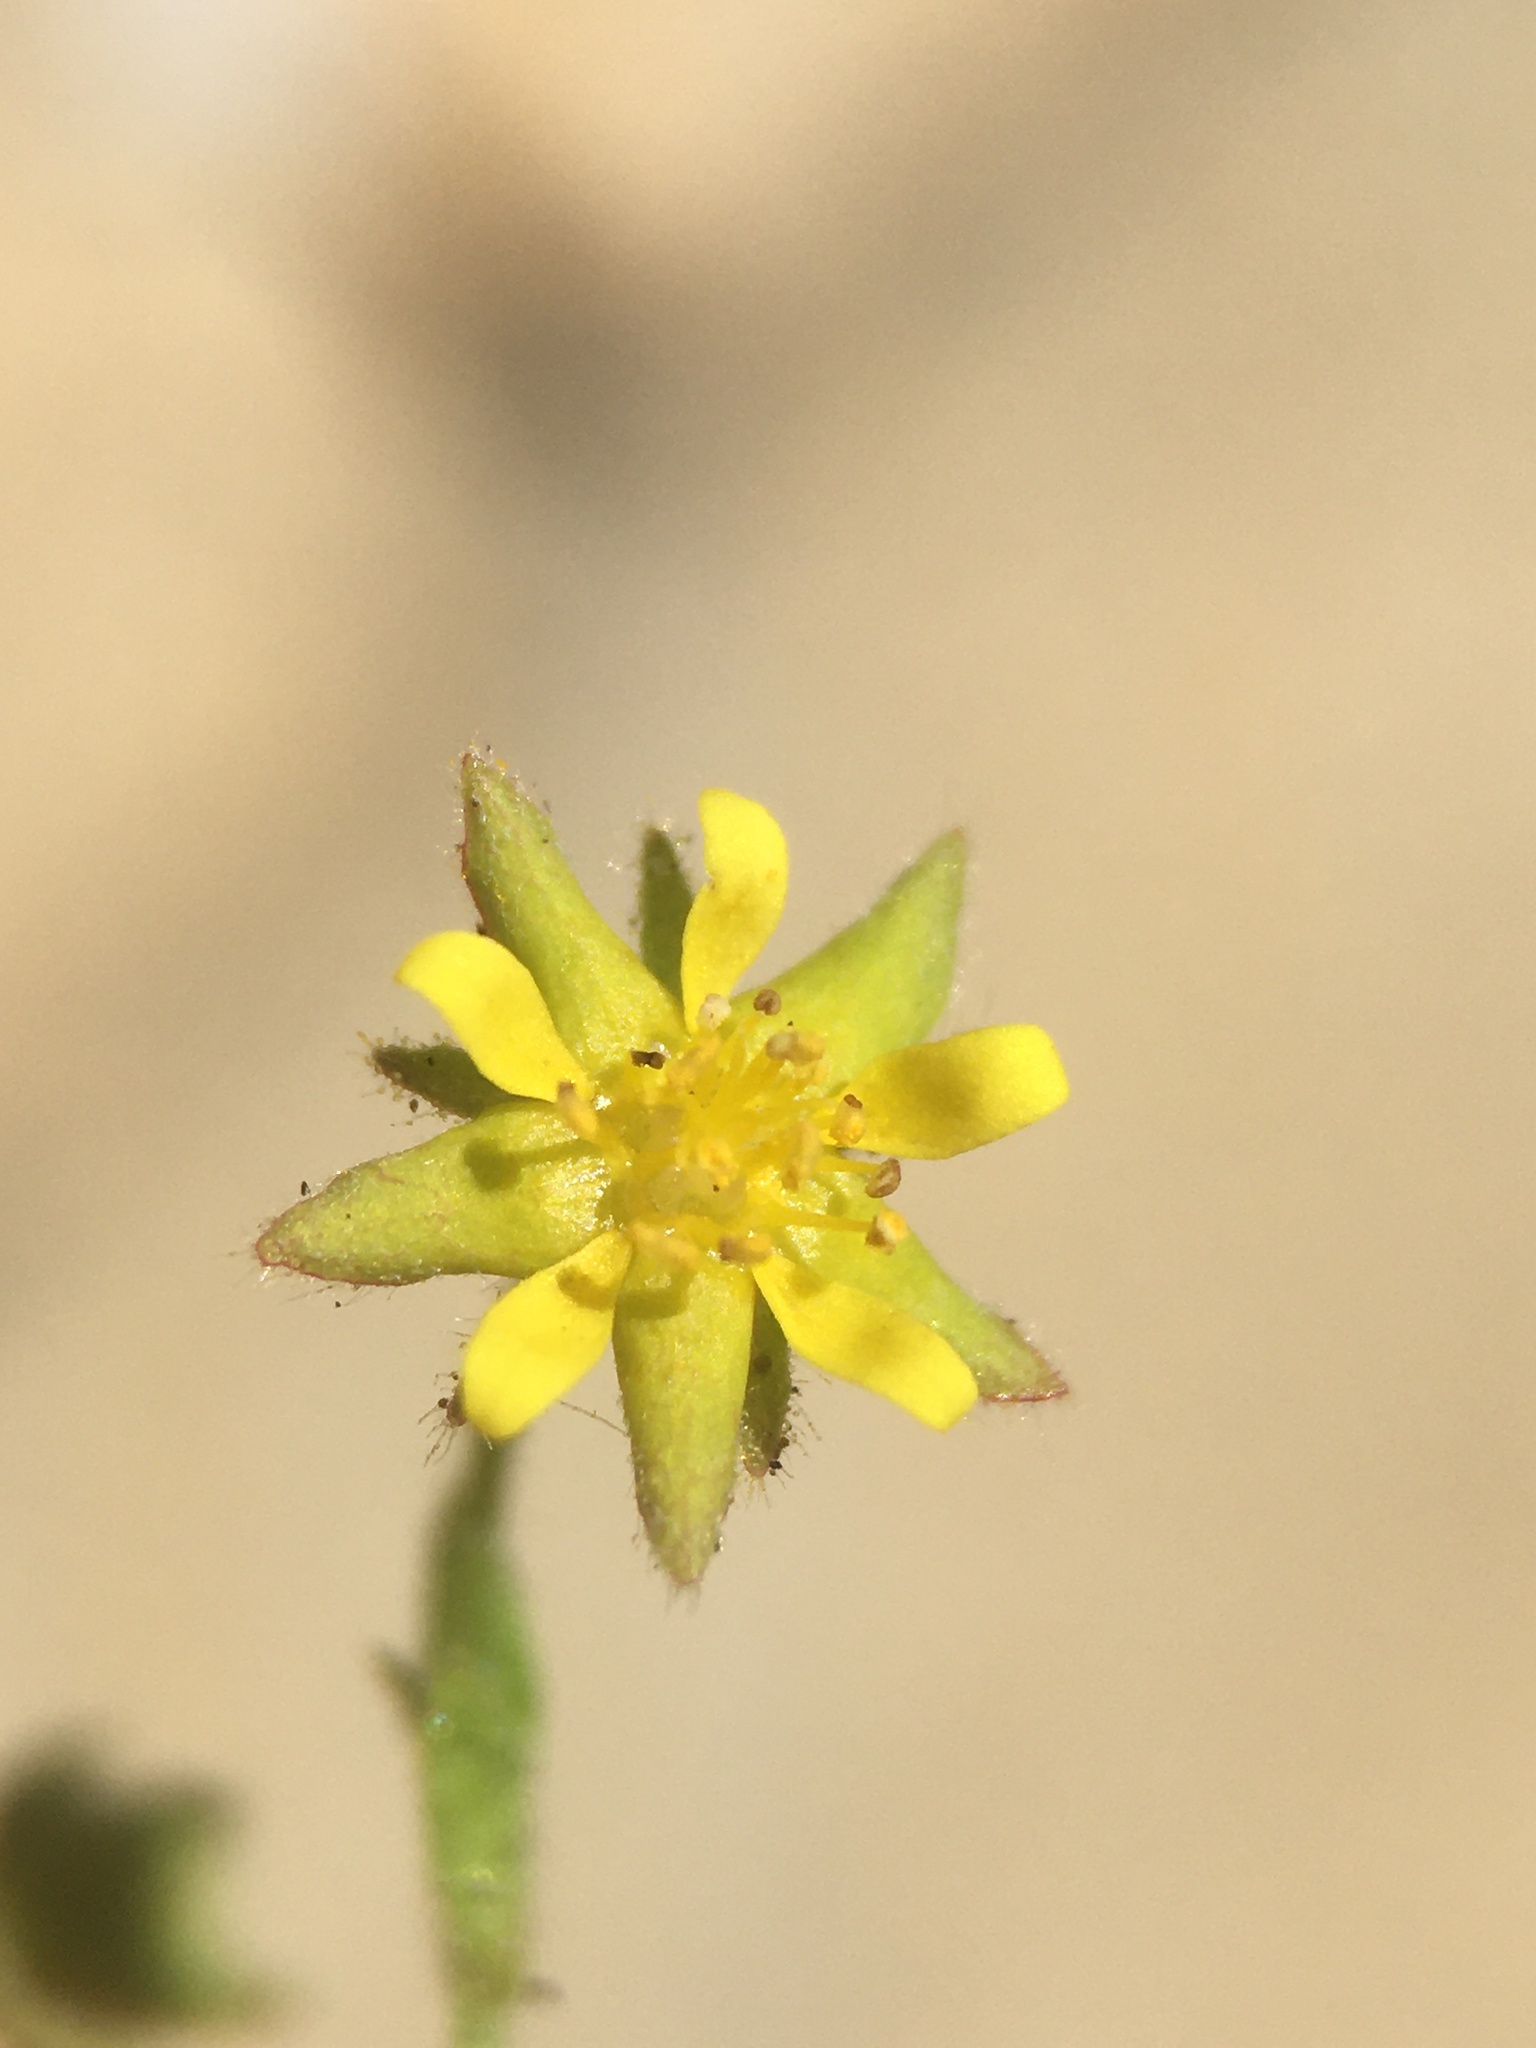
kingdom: Plantae
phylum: Tracheophyta
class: Magnoliopsida
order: Rosales
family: Rosaceae
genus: Potentilla
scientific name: Potentilla saxosa
